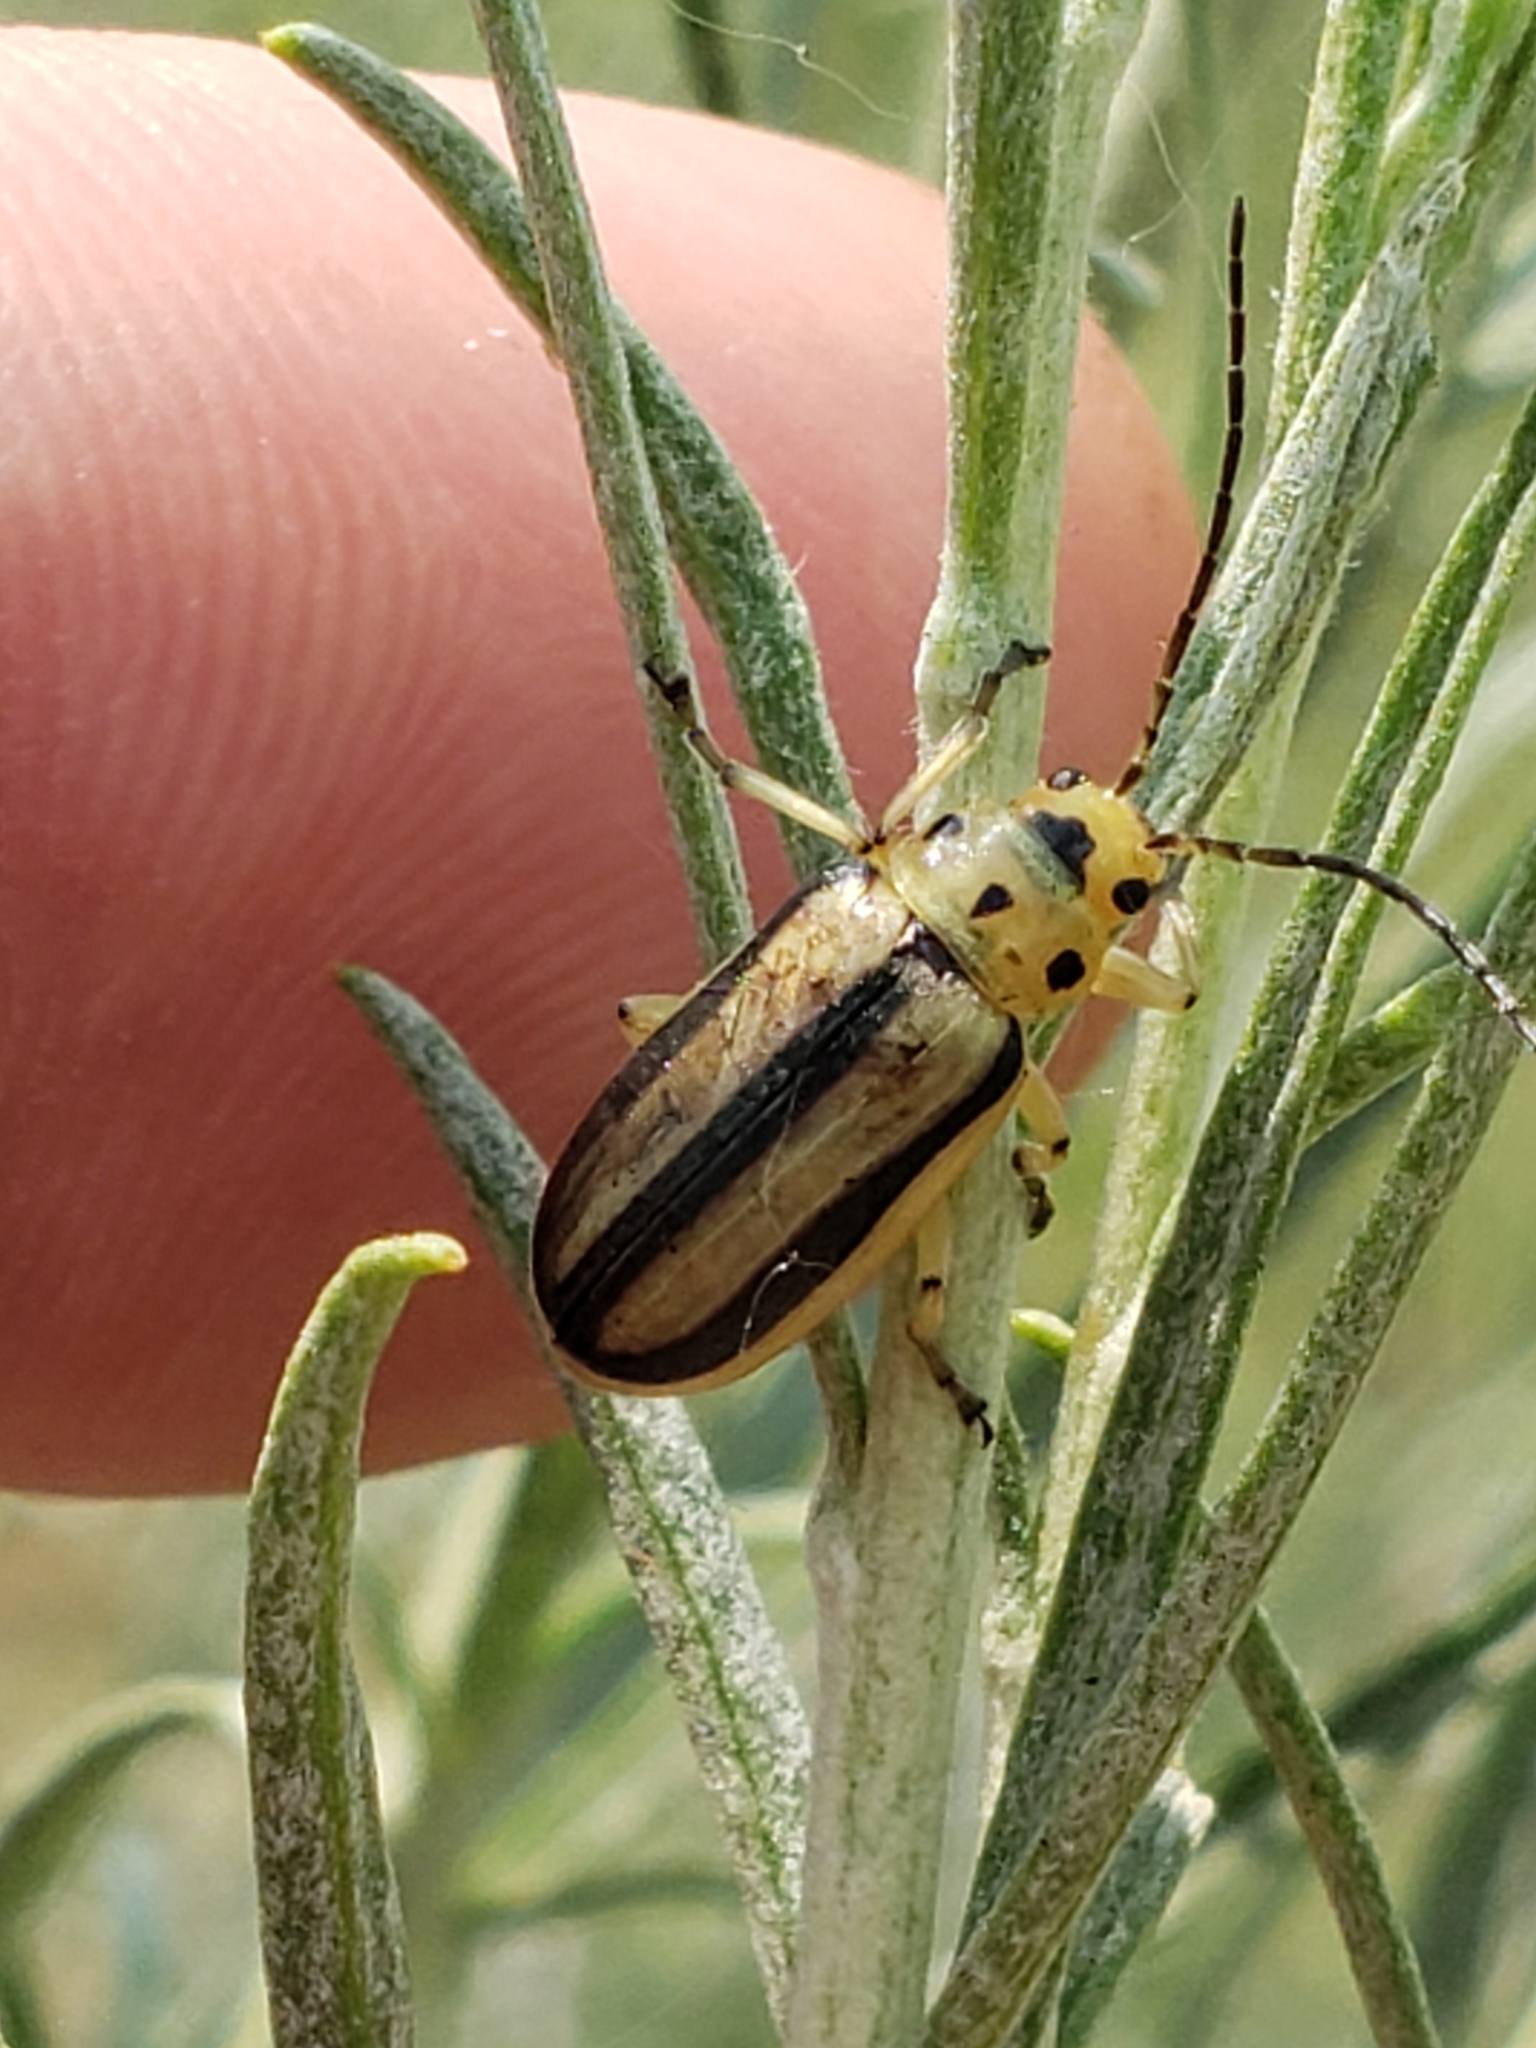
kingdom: Animalia
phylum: Arthropoda
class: Insecta
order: Coleoptera
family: Chrysomelidae
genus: Trirhabda
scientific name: Trirhabda nitidicollis
